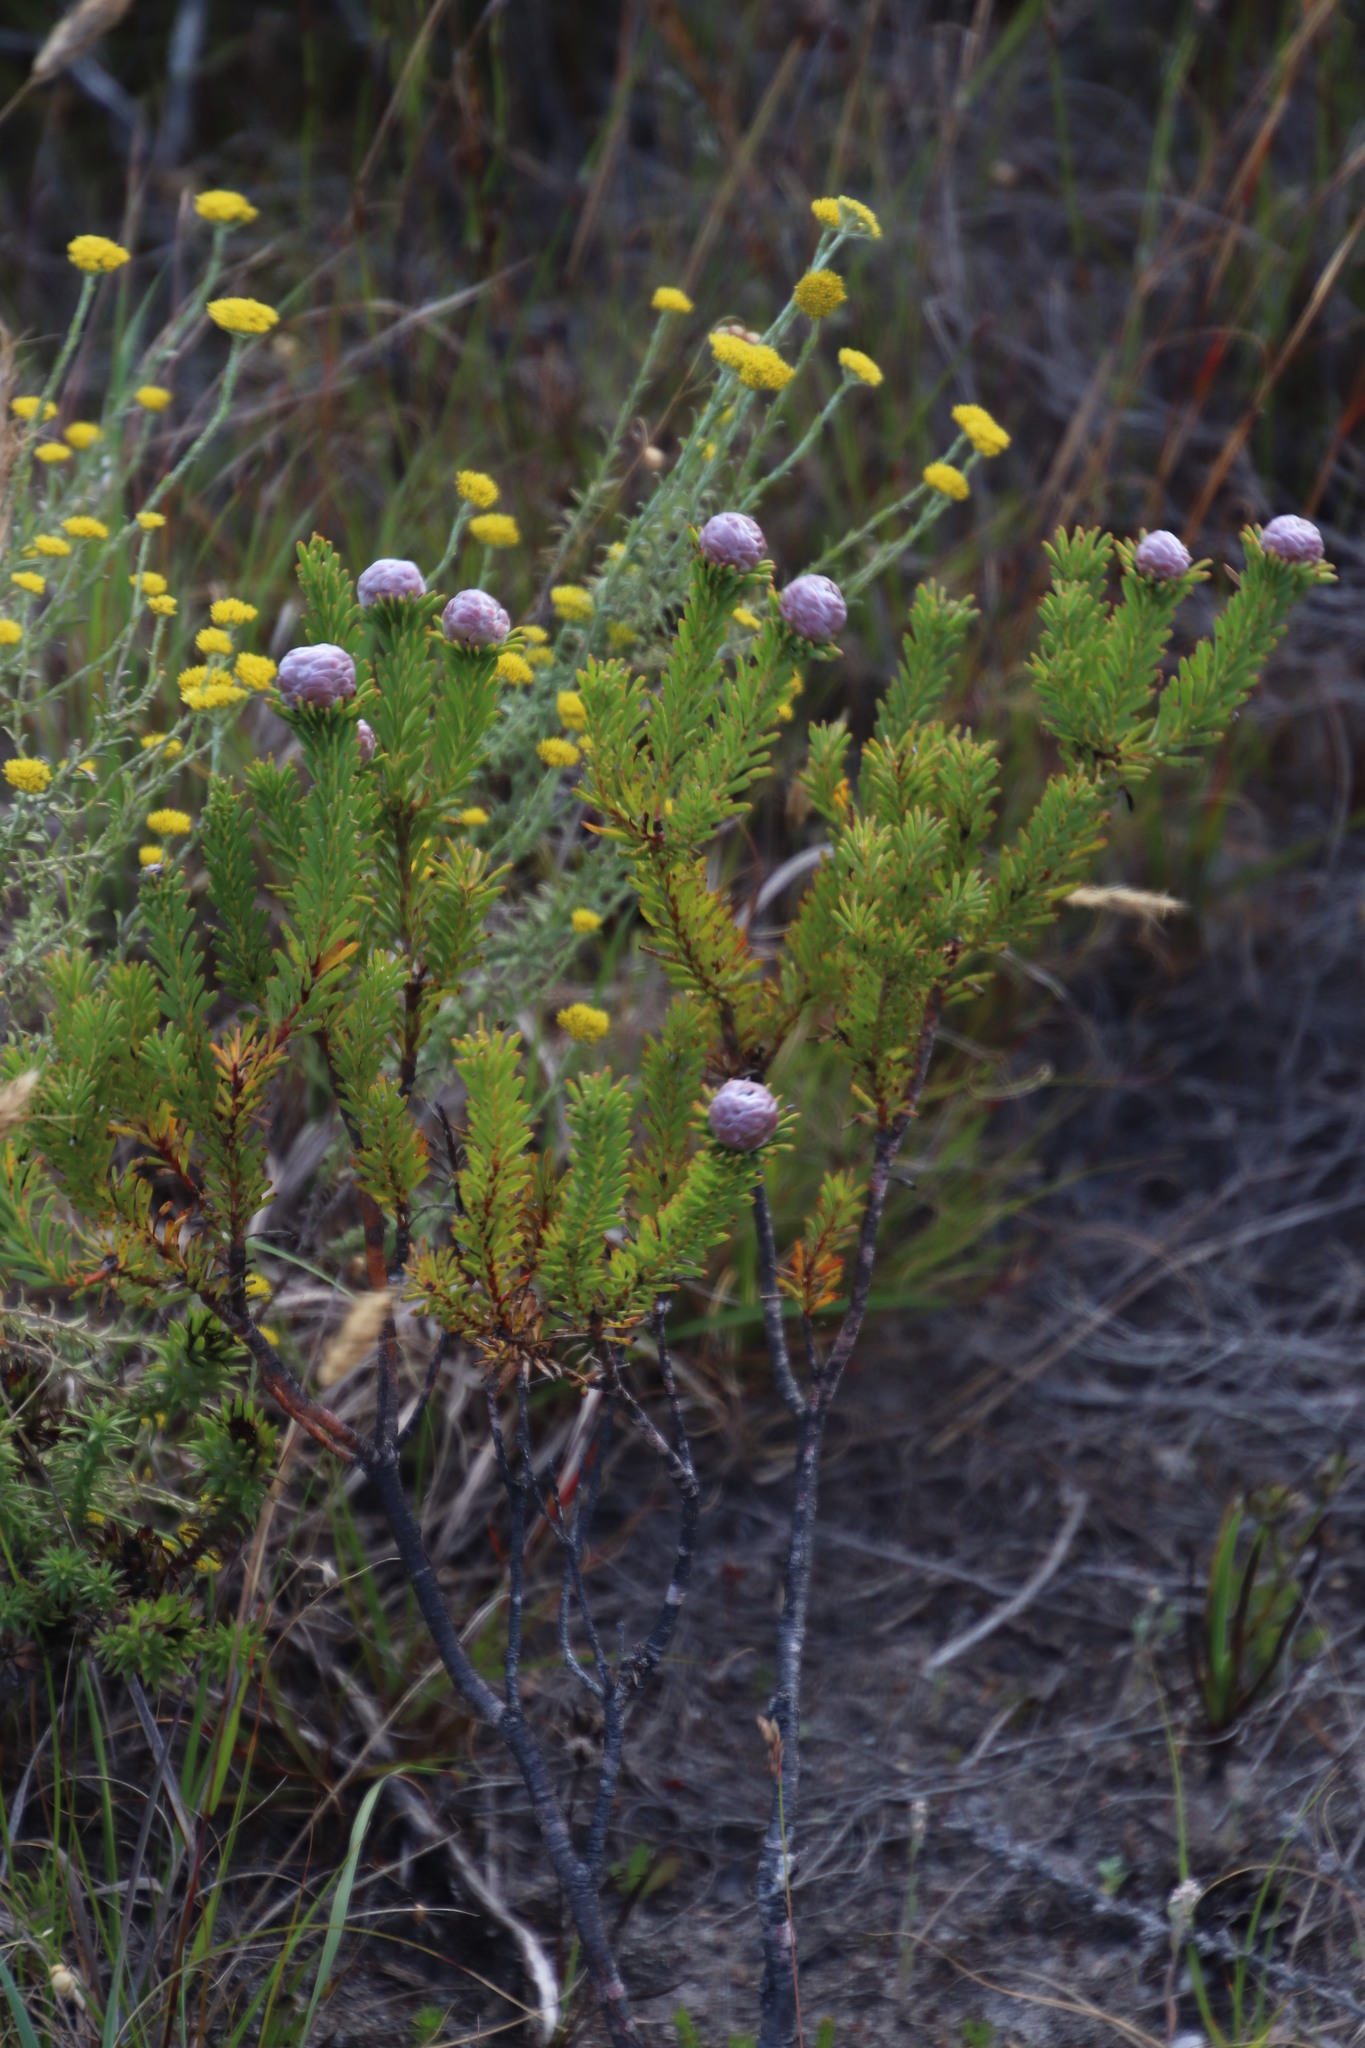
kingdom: Plantae
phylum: Tracheophyta
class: Magnoliopsida
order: Proteales
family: Proteaceae
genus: Leucadendron
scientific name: Leucadendron linifolium
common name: Line-leaf conebush
